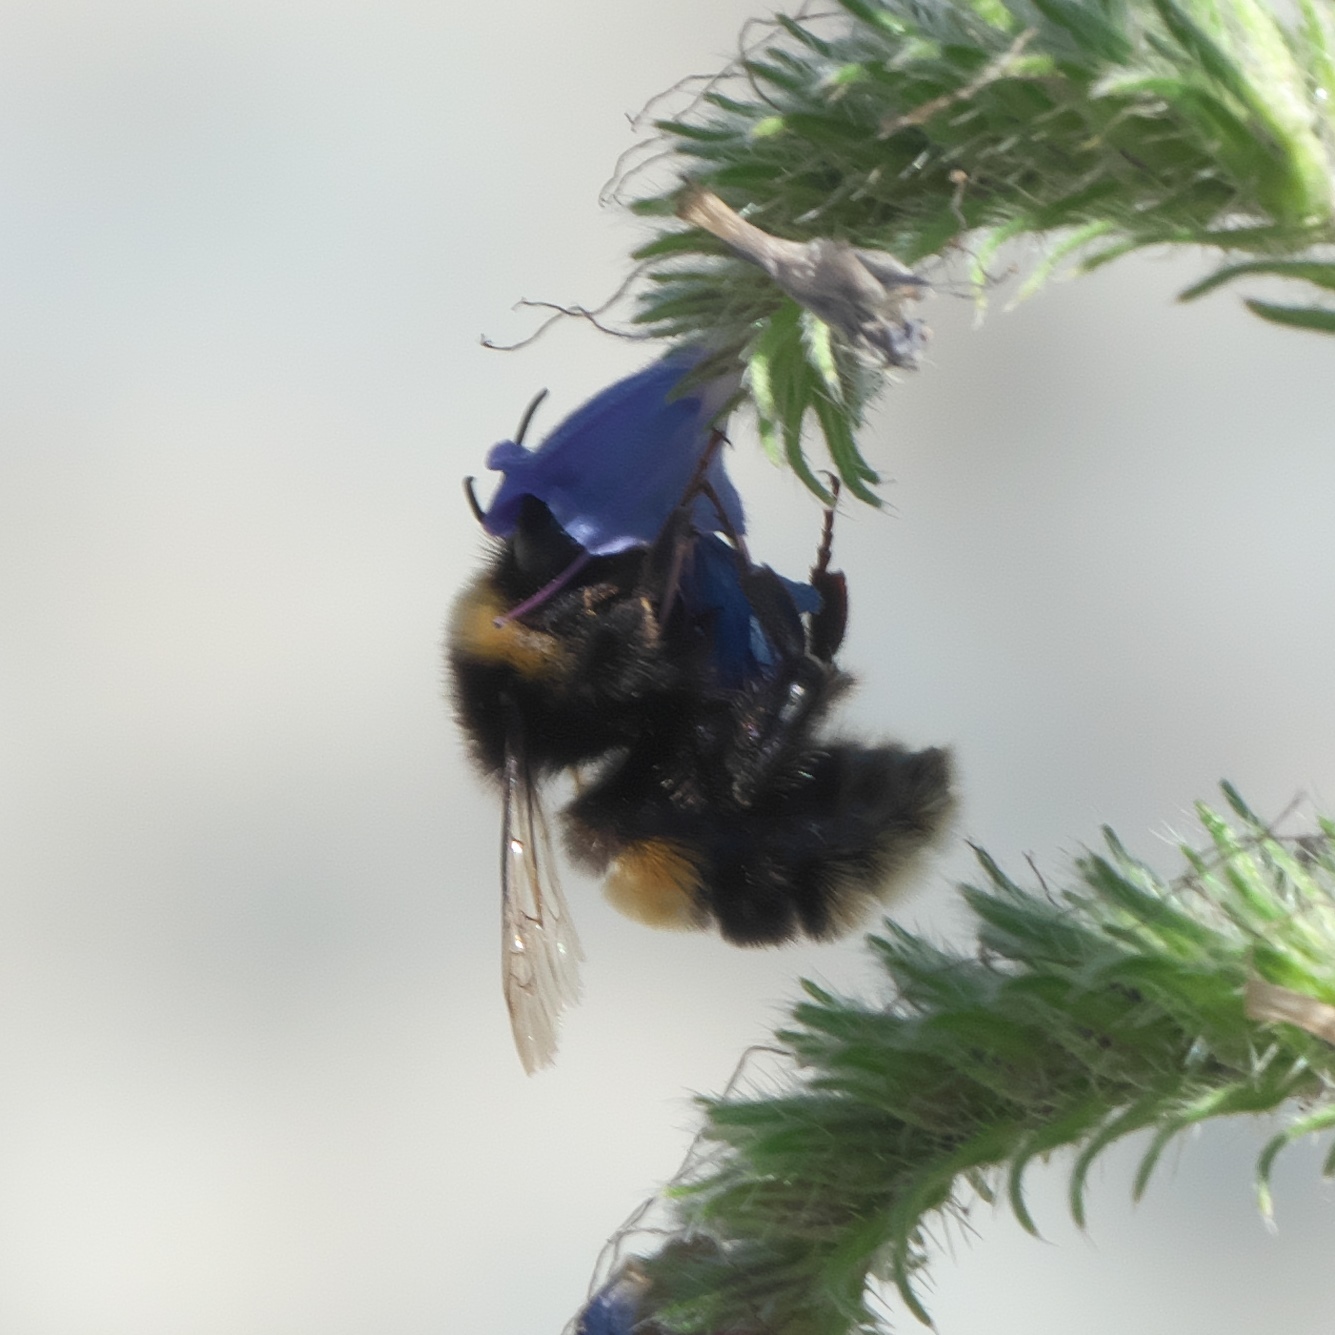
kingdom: Animalia
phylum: Arthropoda
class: Insecta
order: Hymenoptera
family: Apidae
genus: Bombus
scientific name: Bombus terrestris
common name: Buff-tailed bumblebee
